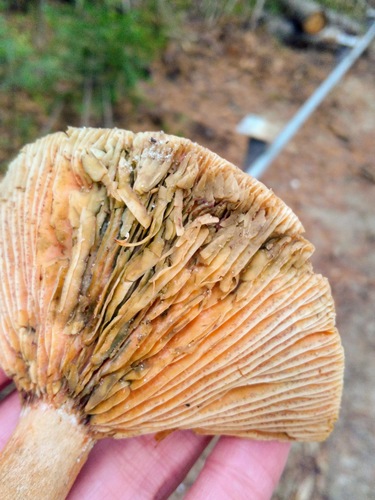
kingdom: Fungi
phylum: Basidiomycota
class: Agaricomycetes
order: Russulales
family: Russulaceae
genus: Lactarius
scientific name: Lactarius deliciosus
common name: Saffron milk-cap
